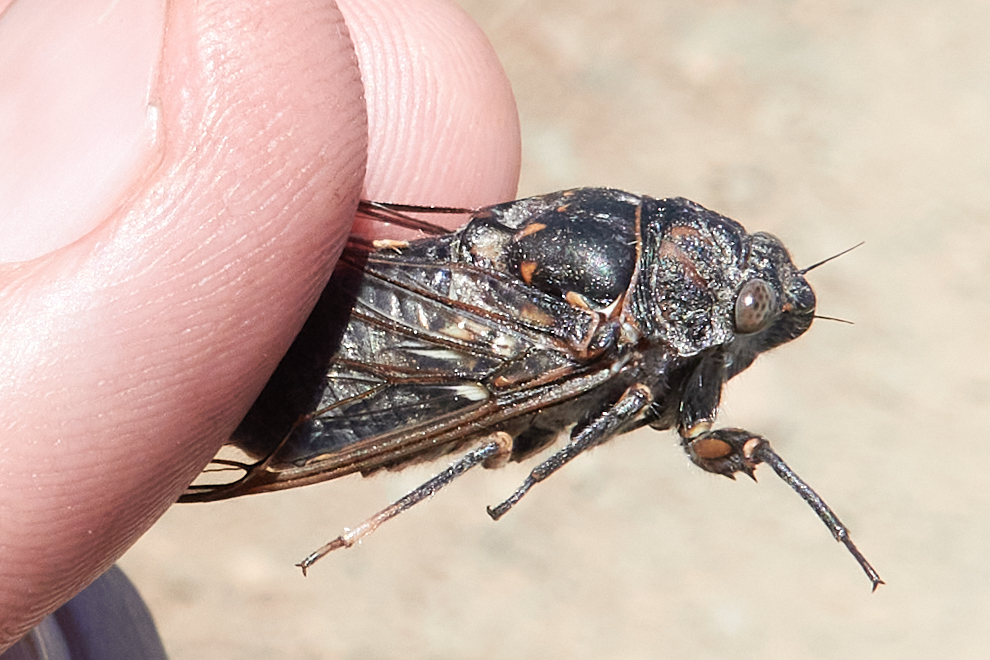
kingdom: Animalia
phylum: Arthropoda
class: Insecta
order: Hemiptera
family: Cicadidae
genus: Okanagana
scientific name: Okanagana canescens
